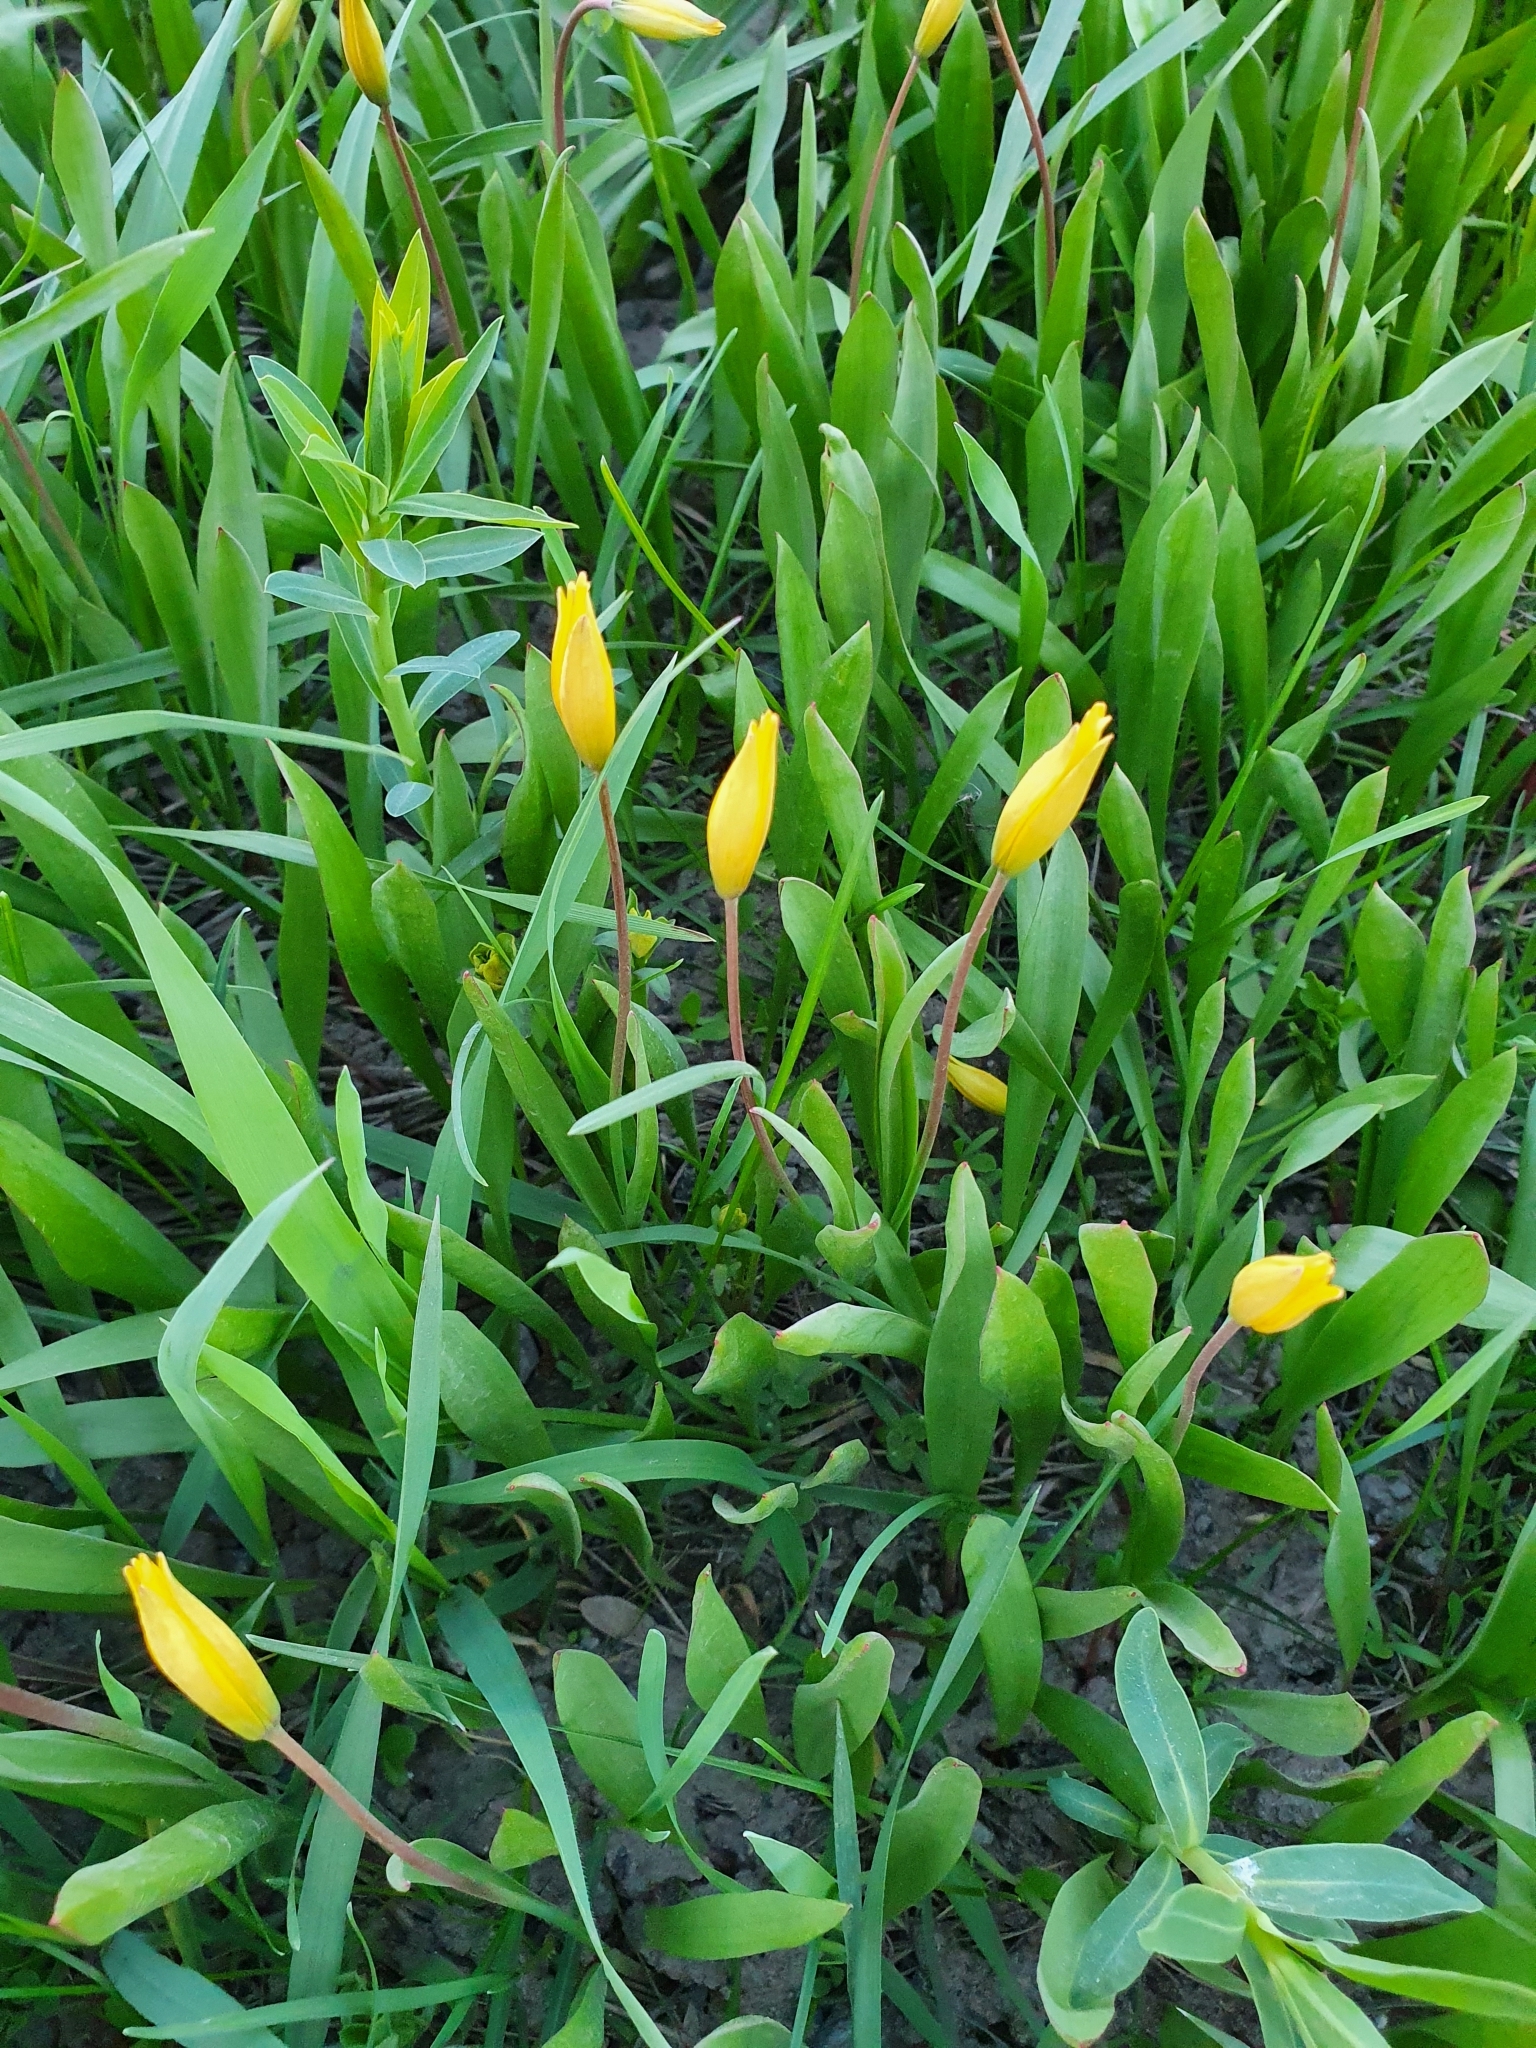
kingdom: Plantae
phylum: Tracheophyta
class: Liliopsida
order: Liliales
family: Liliaceae
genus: Tulipa
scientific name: Tulipa sylvestris
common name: Wild tulip
